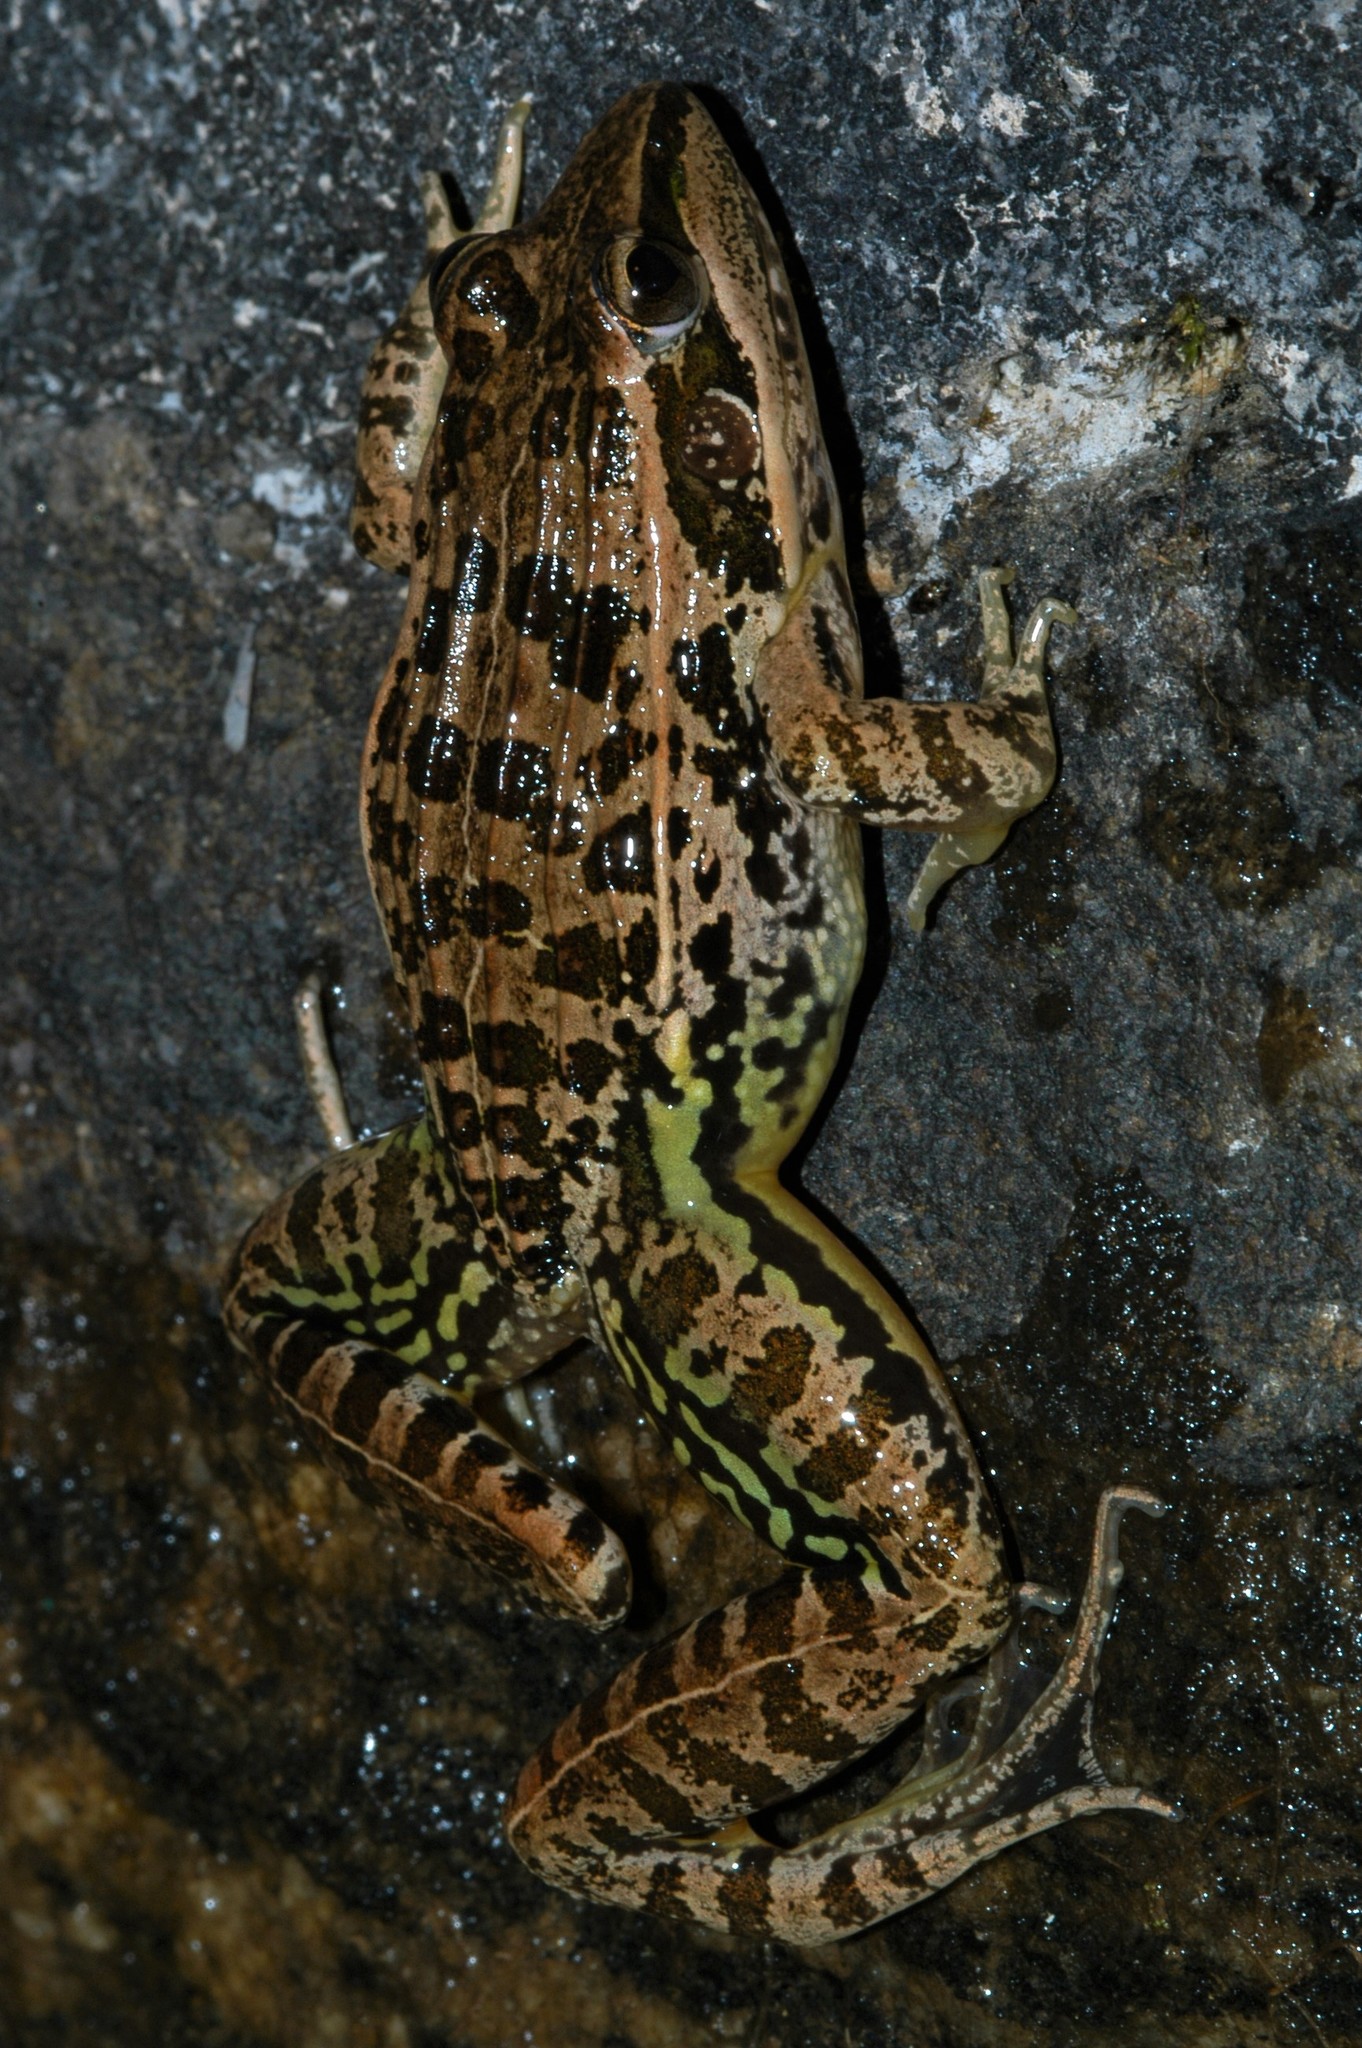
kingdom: Animalia
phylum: Chordata
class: Amphibia
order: Anura
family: Ptychadenidae
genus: Ptychadena
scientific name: Ptychadena mascareniensis
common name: Mascarene grass frog
